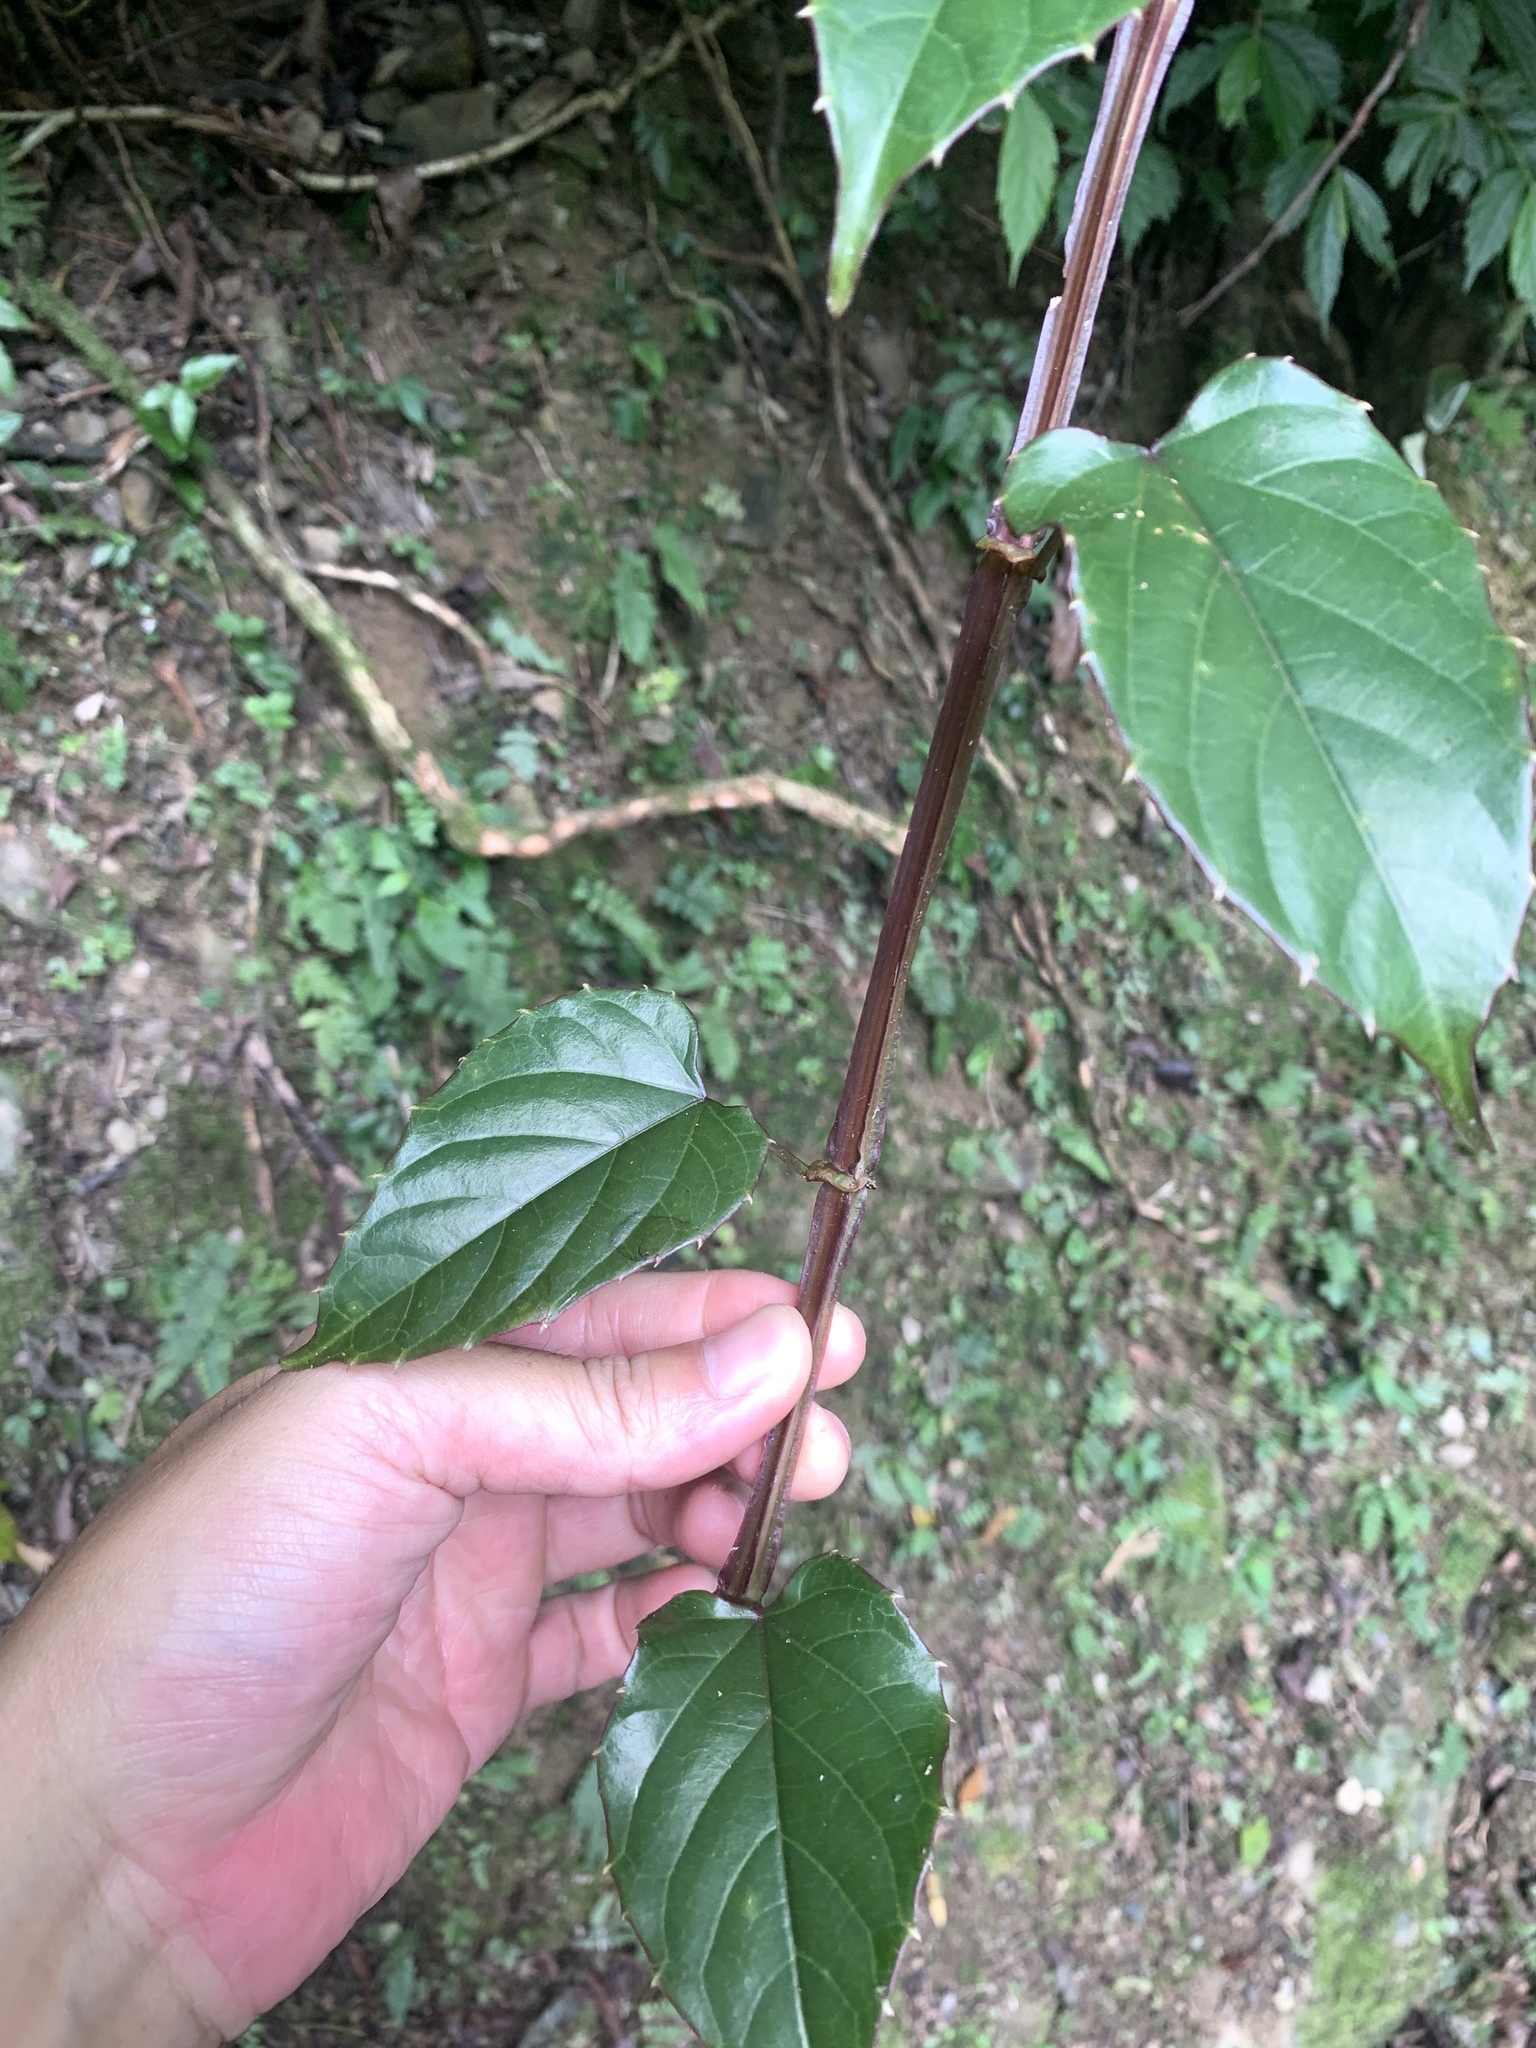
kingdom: Plantae
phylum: Tracheophyta
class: Magnoliopsida
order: Vitales
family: Vitaceae
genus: Cissus
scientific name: Cissus pteroclada
